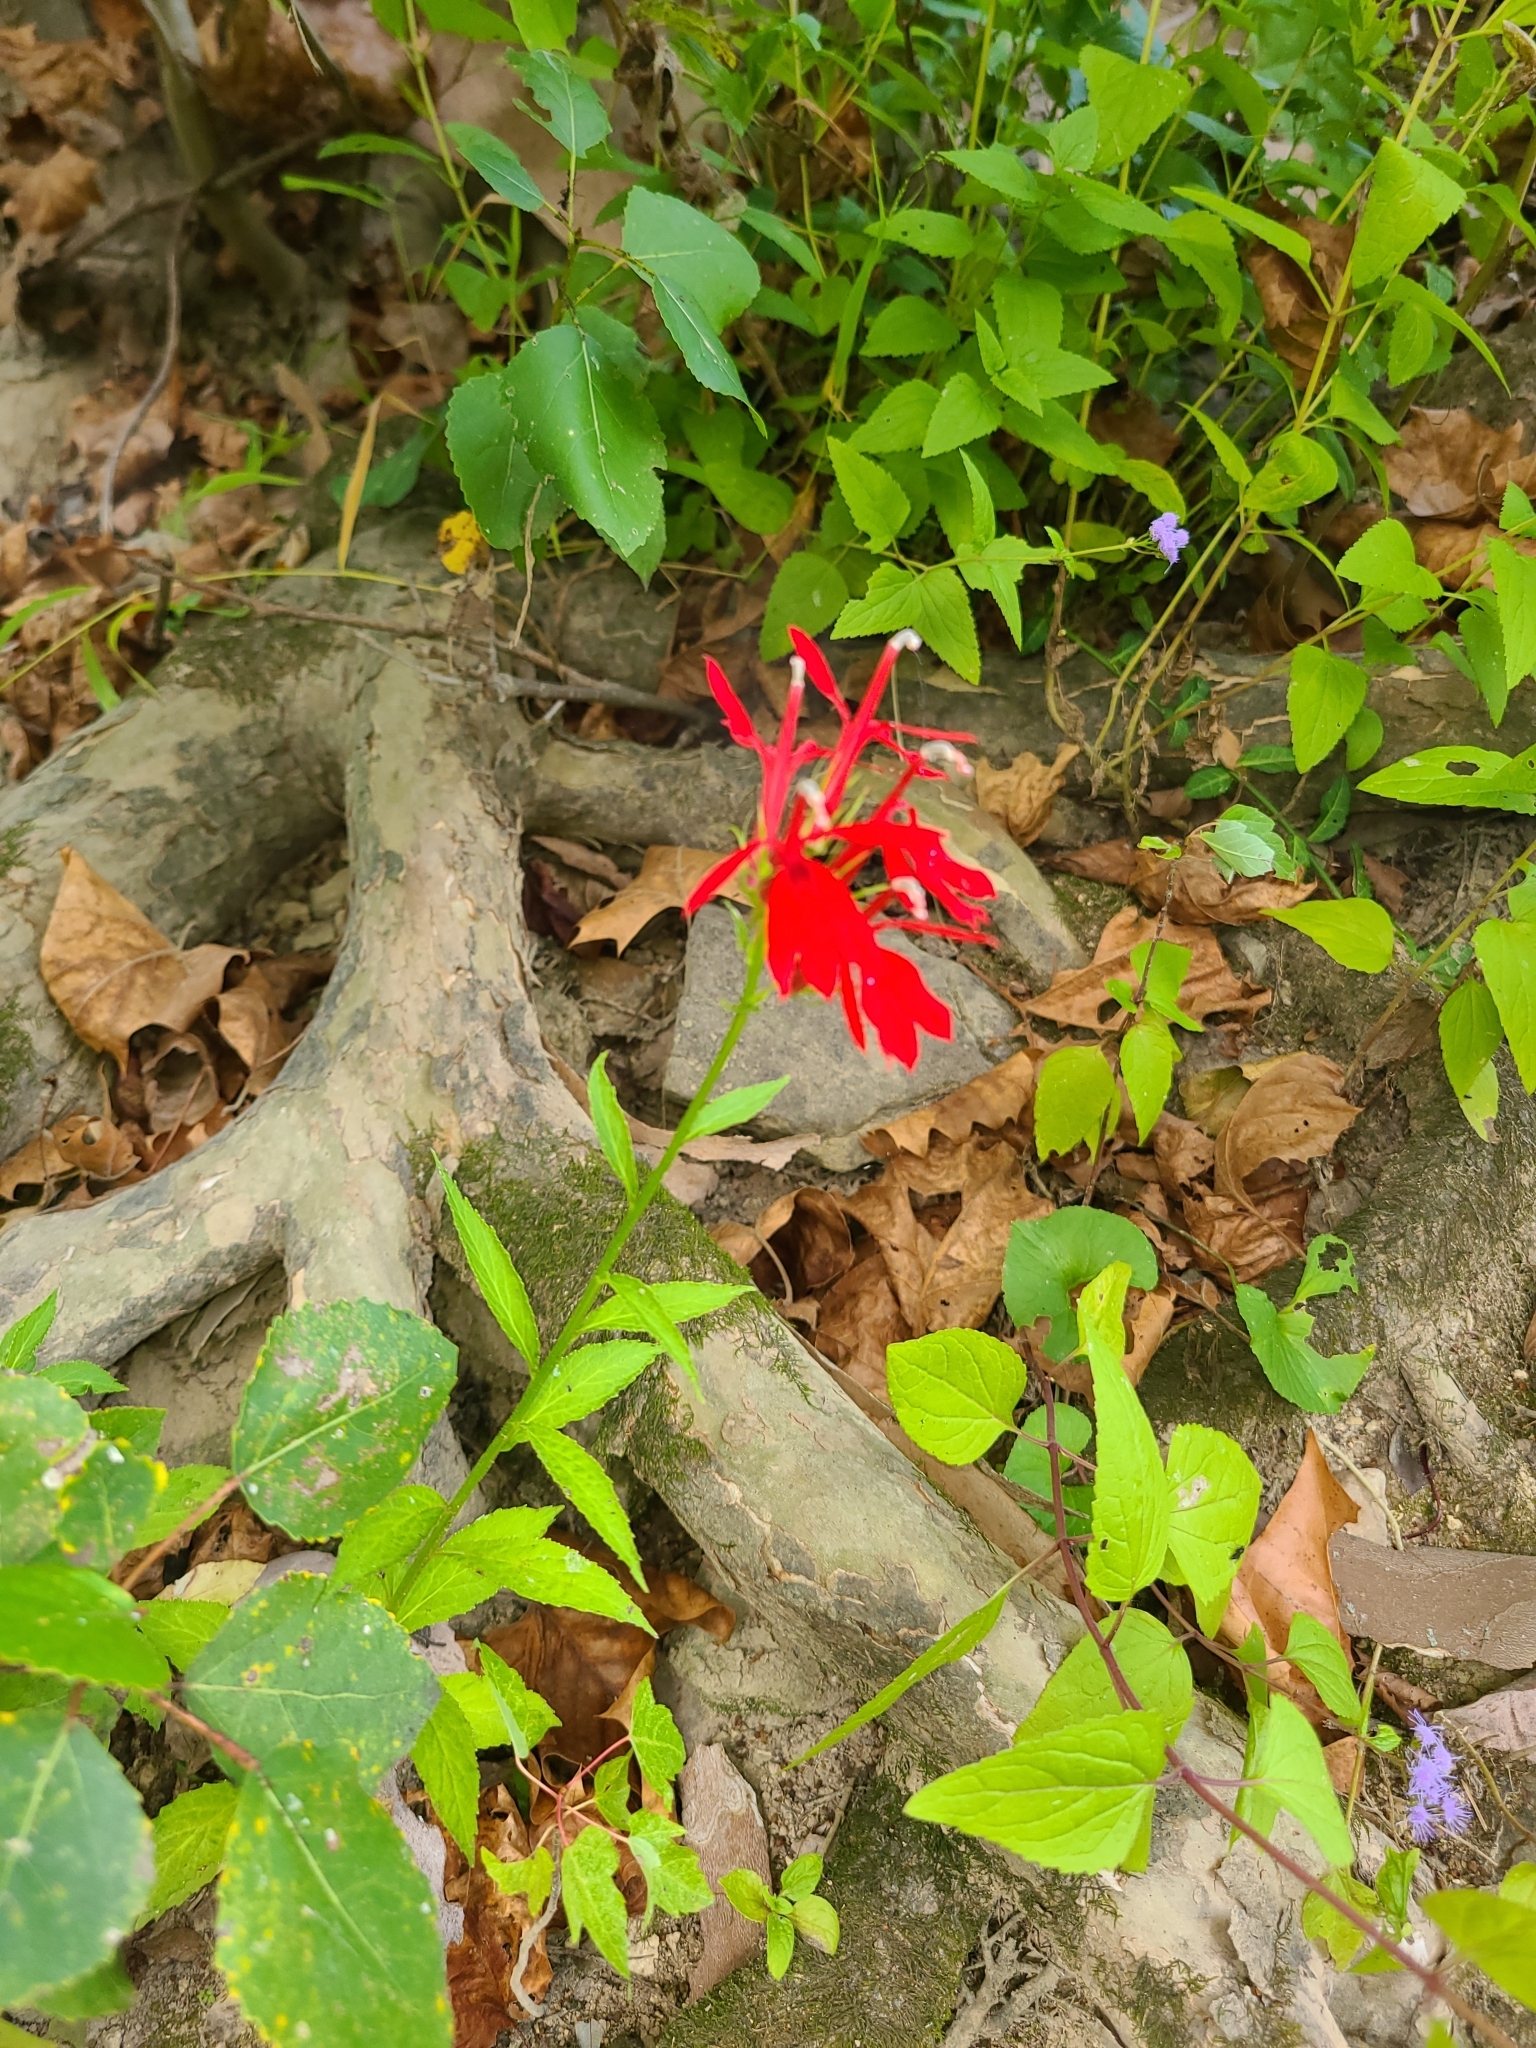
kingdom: Plantae
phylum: Tracheophyta
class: Magnoliopsida
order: Asterales
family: Campanulaceae
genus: Lobelia
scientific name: Lobelia cardinalis
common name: Cardinal flower
